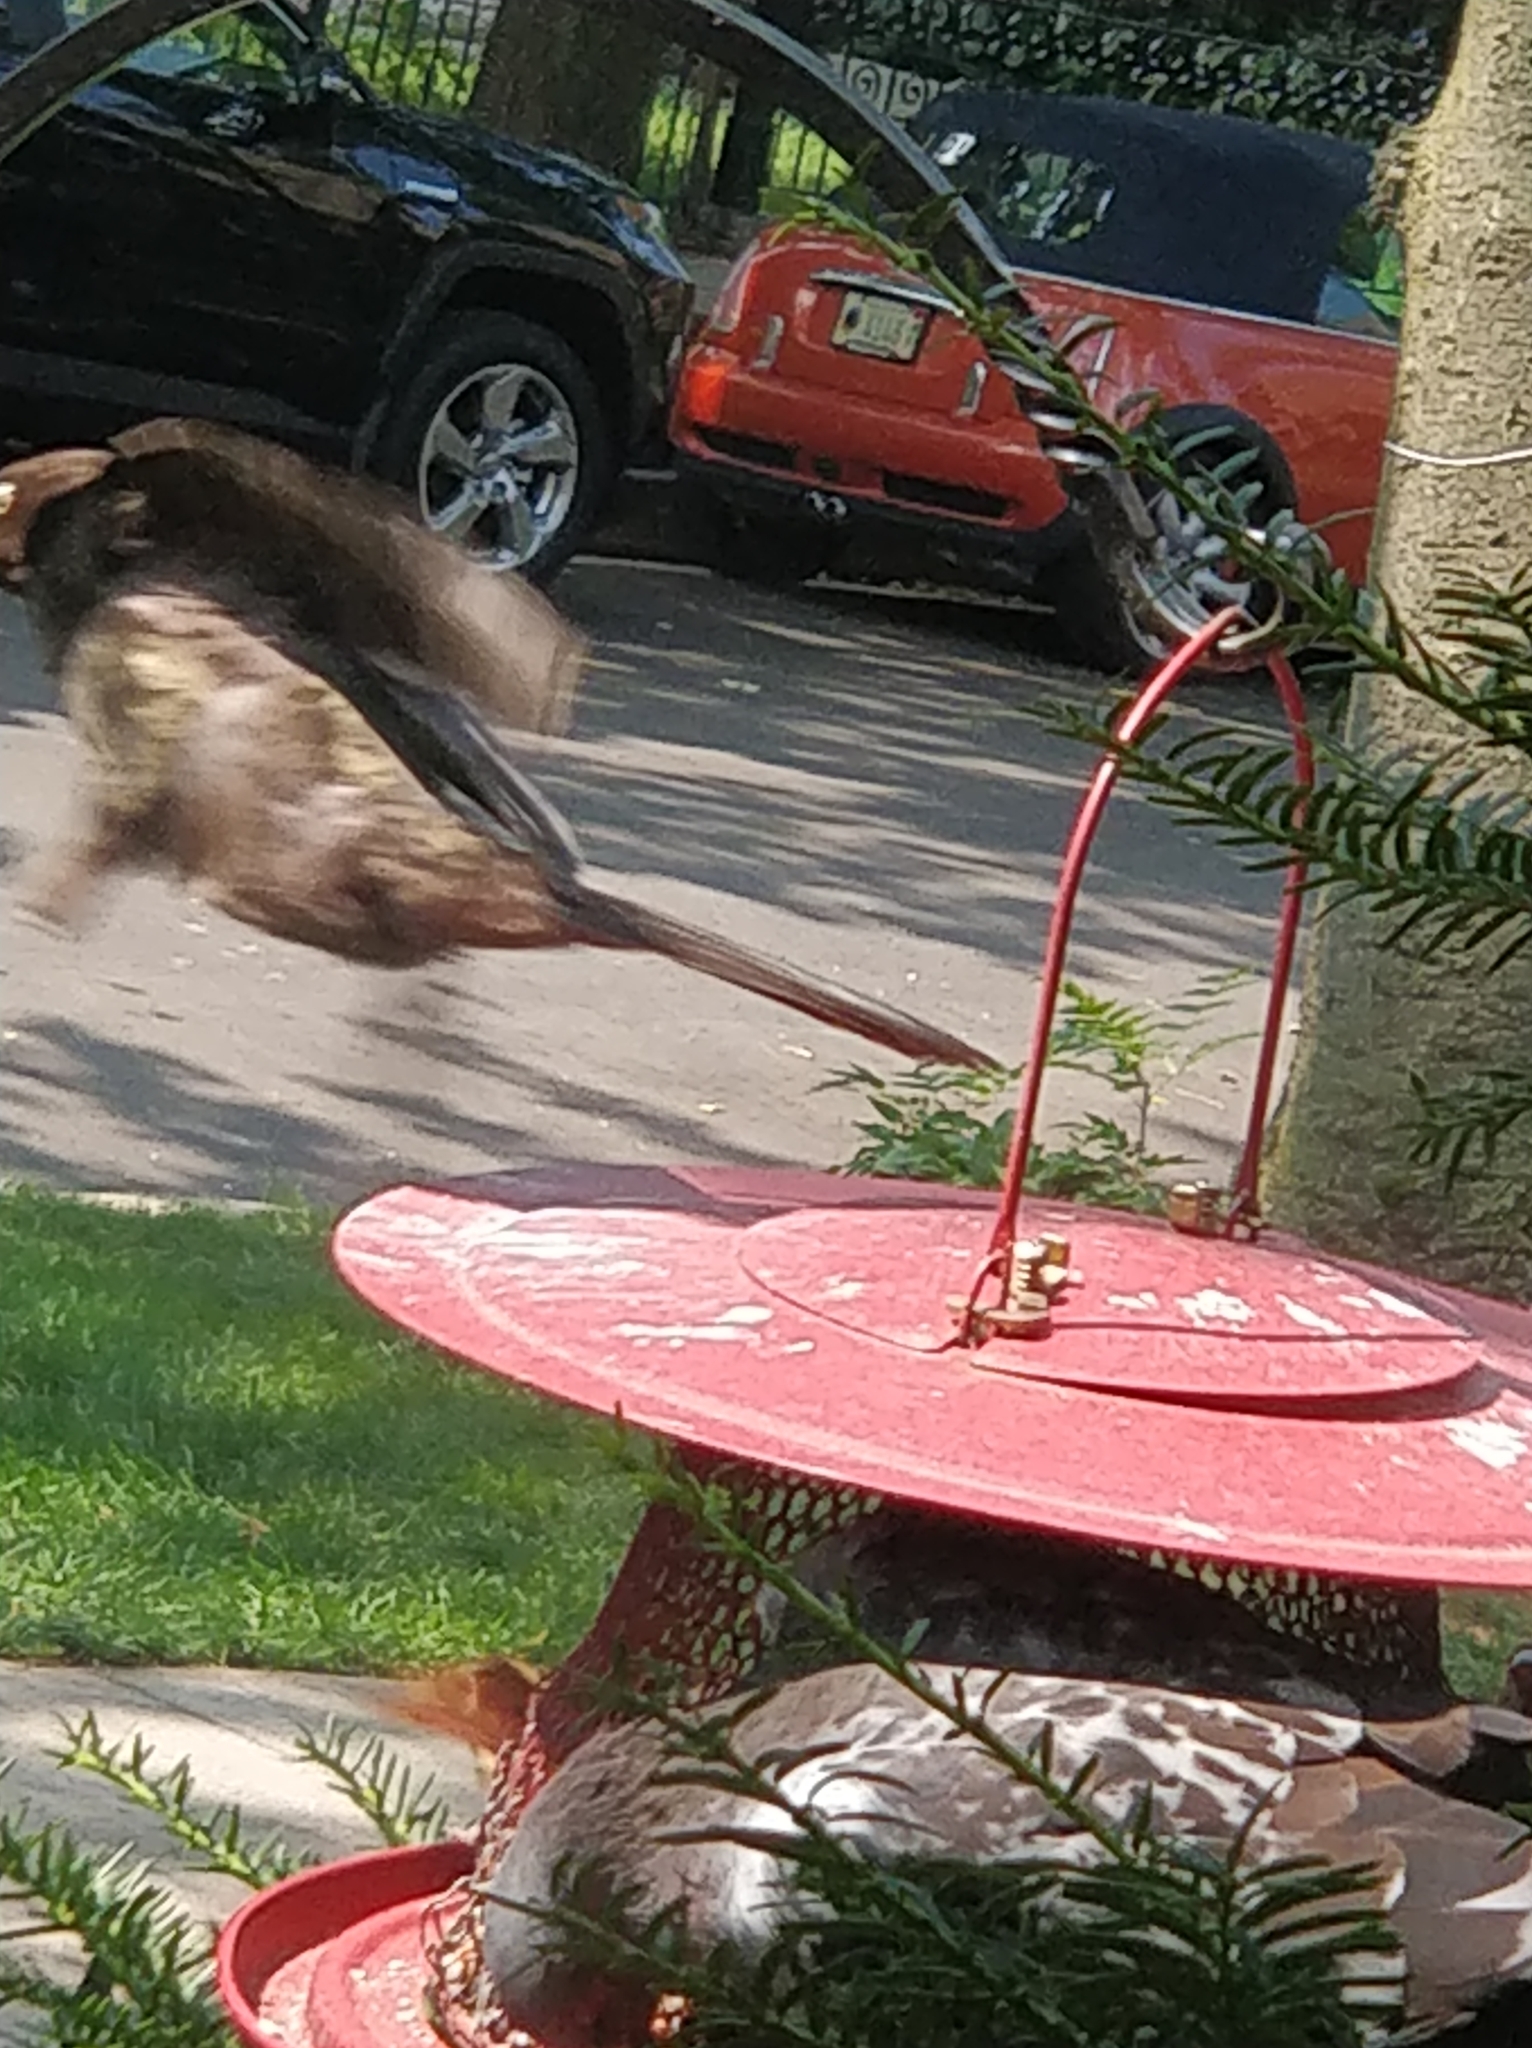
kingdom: Animalia
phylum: Chordata
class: Aves
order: Passeriformes
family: Icteridae
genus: Quiscalus
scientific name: Quiscalus quiscula
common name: Common grackle
